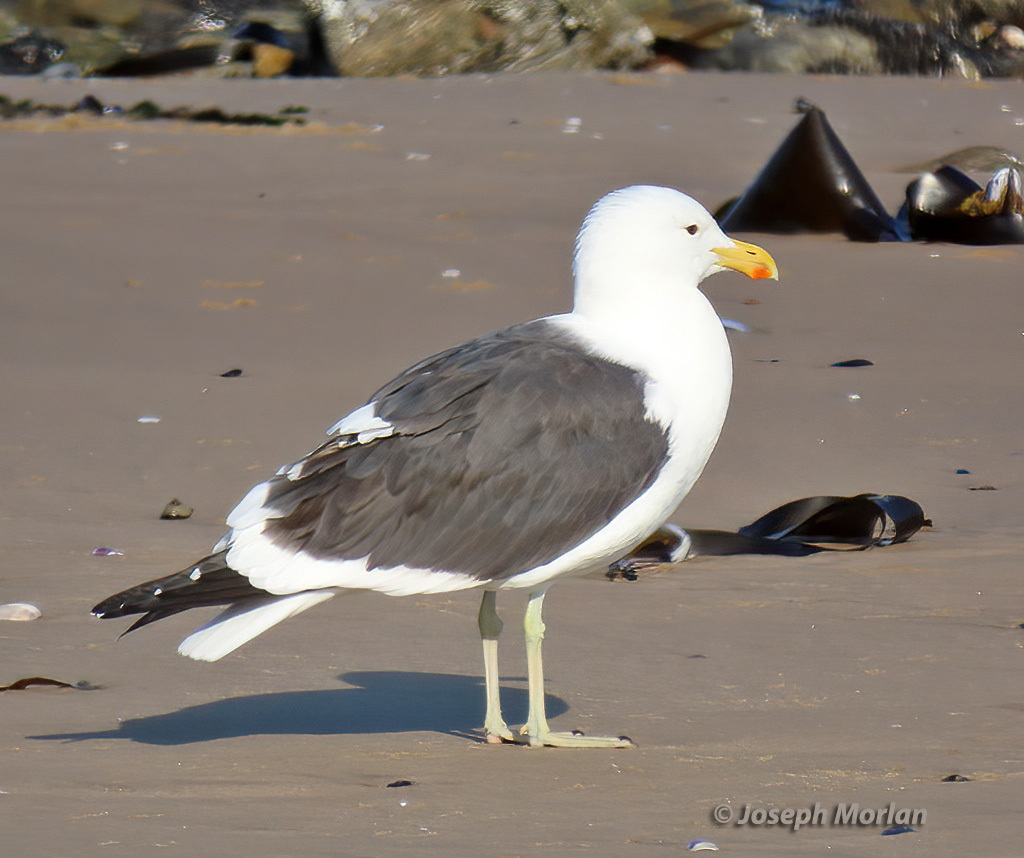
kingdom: Animalia
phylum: Chordata
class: Aves
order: Charadriiformes
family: Laridae
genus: Larus
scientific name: Larus dominicanus
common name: Kelp gull
